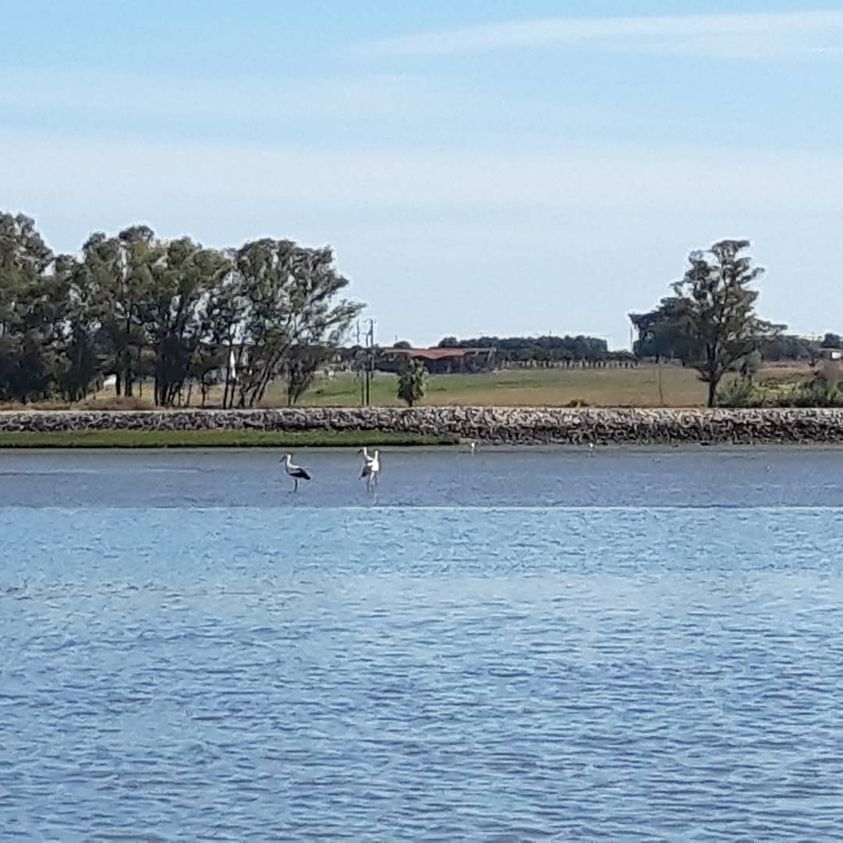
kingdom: Animalia
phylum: Chordata
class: Aves
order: Ciconiiformes
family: Ciconiidae
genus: Ciconia
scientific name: Ciconia ciconia
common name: White stork
